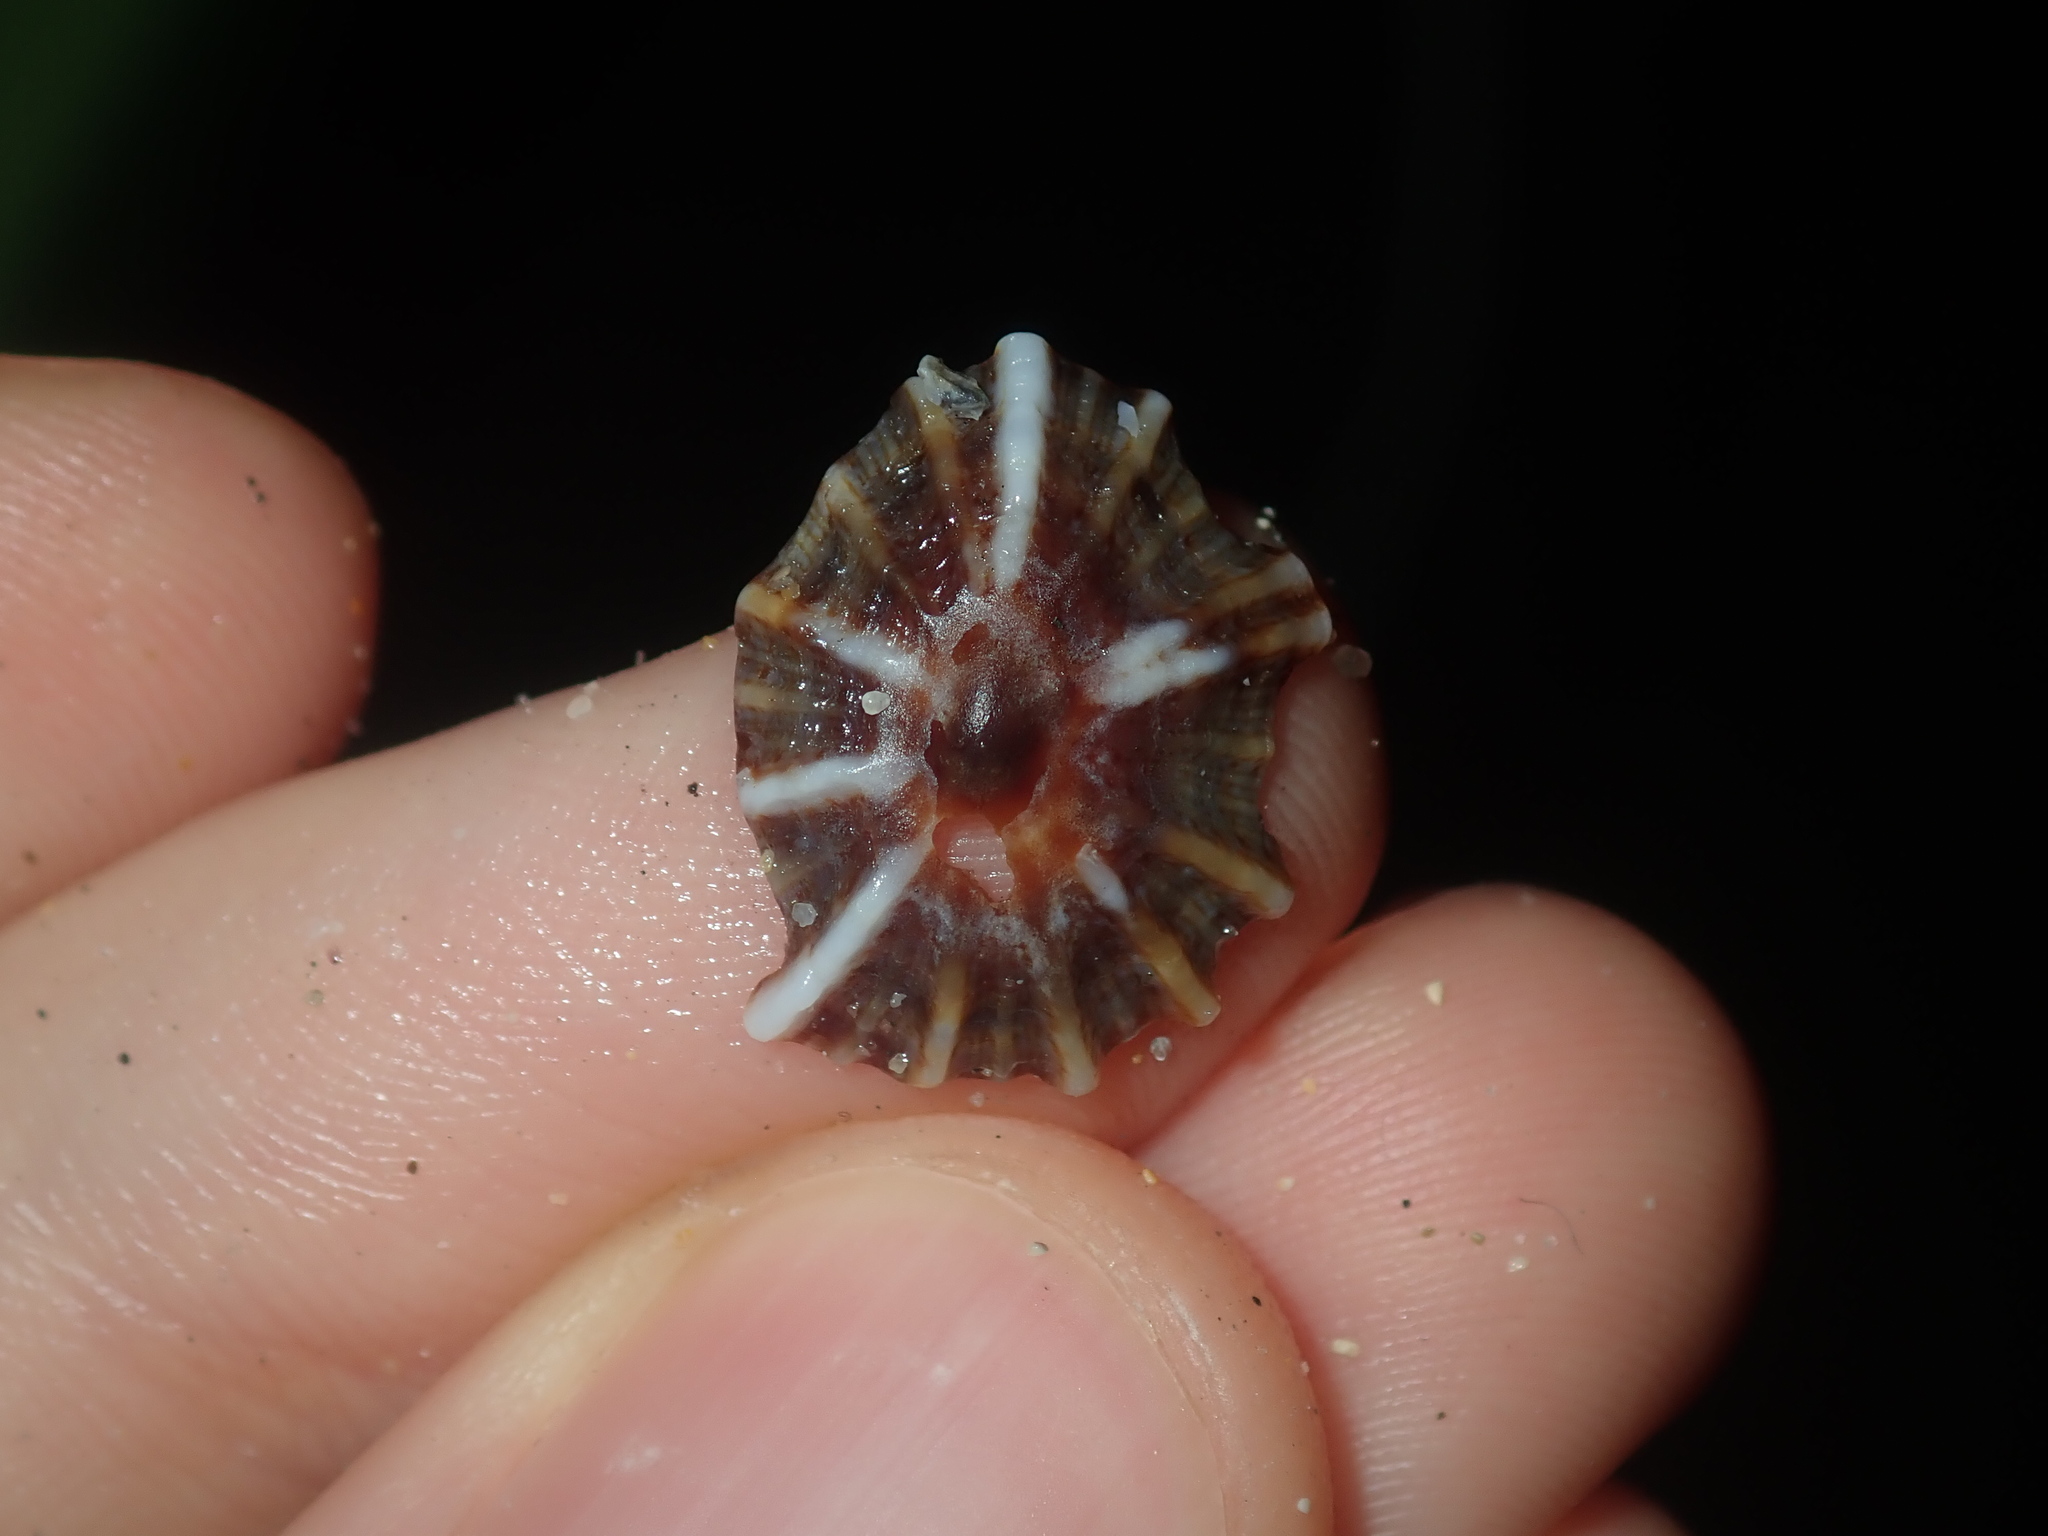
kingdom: Animalia
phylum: Mollusca
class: Gastropoda
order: Siphonariida
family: Siphonariidae
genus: Siphonaria
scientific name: Siphonaria denticulata
